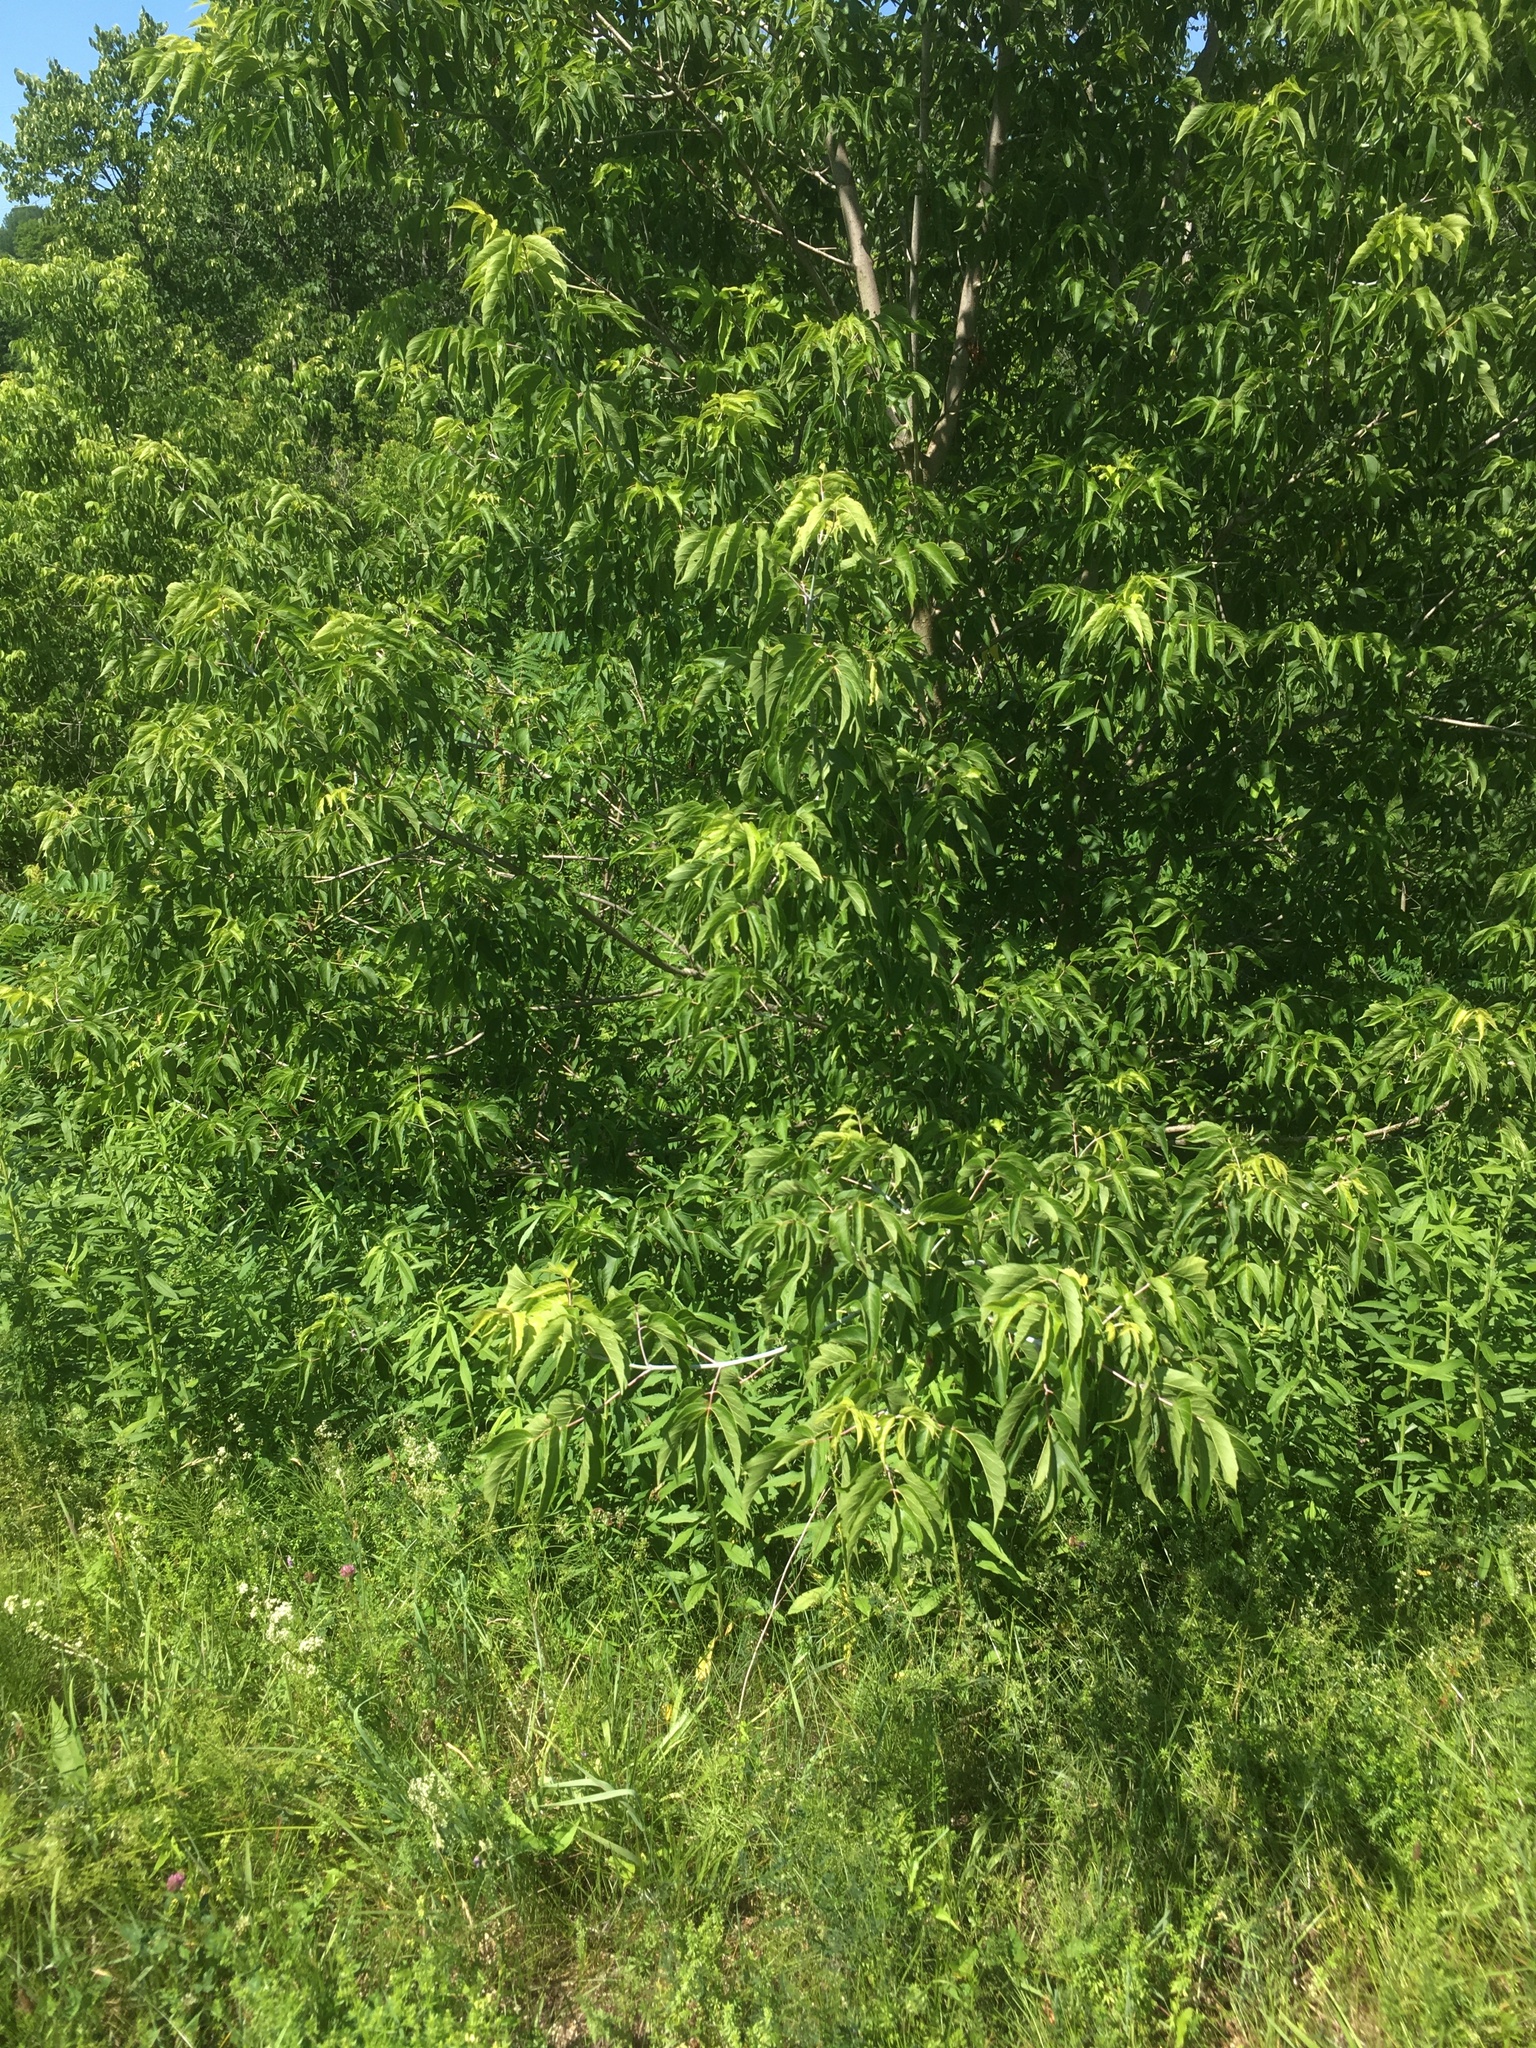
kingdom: Plantae
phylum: Tracheophyta
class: Magnoliopsida
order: Sapindales
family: Sapindaceae
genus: Acer
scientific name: Acer negundo
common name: Ashleaf maple
